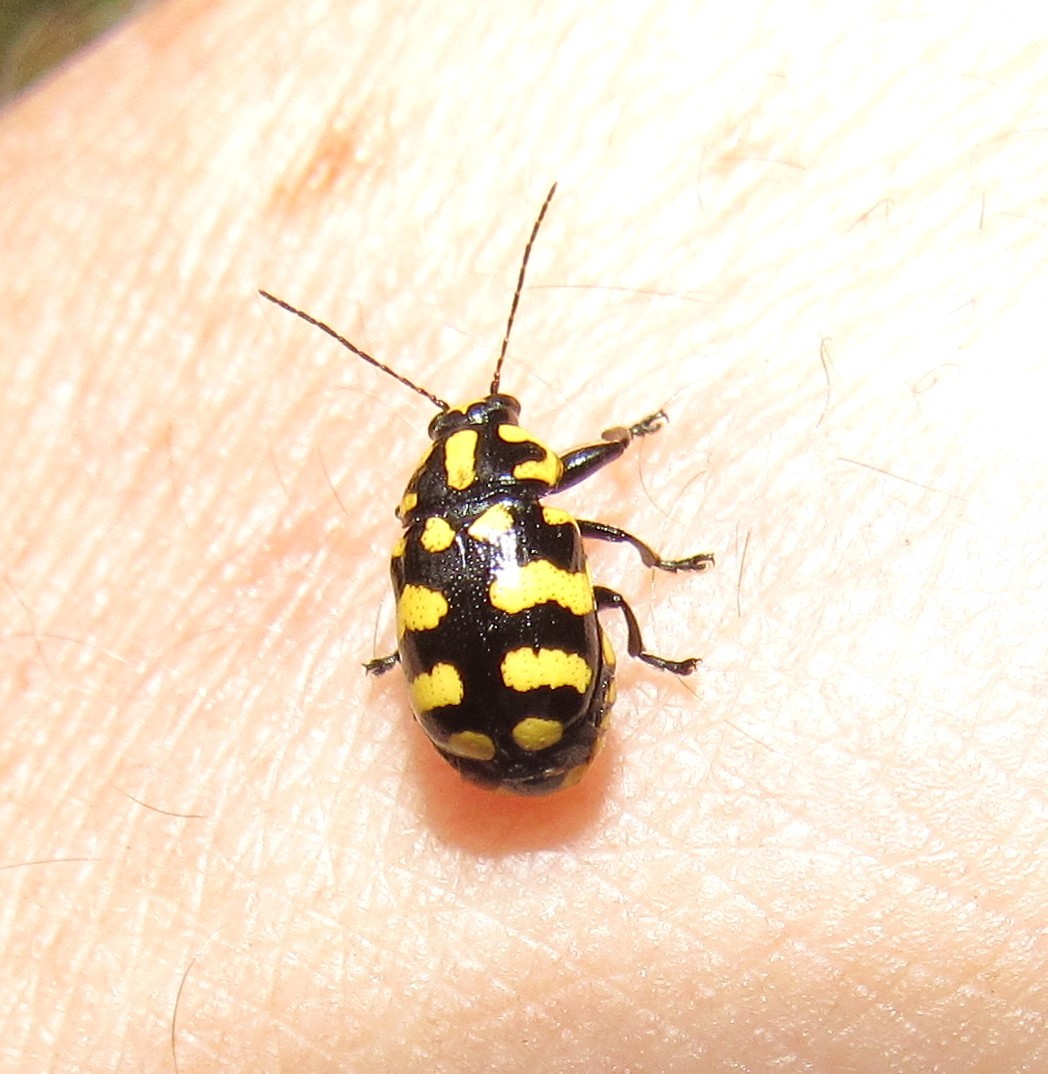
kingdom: Animalia
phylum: Arthropoda
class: Insecta
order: Coleoptera
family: Chrysomelidae
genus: Metallactus
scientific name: Metallactus luniger
